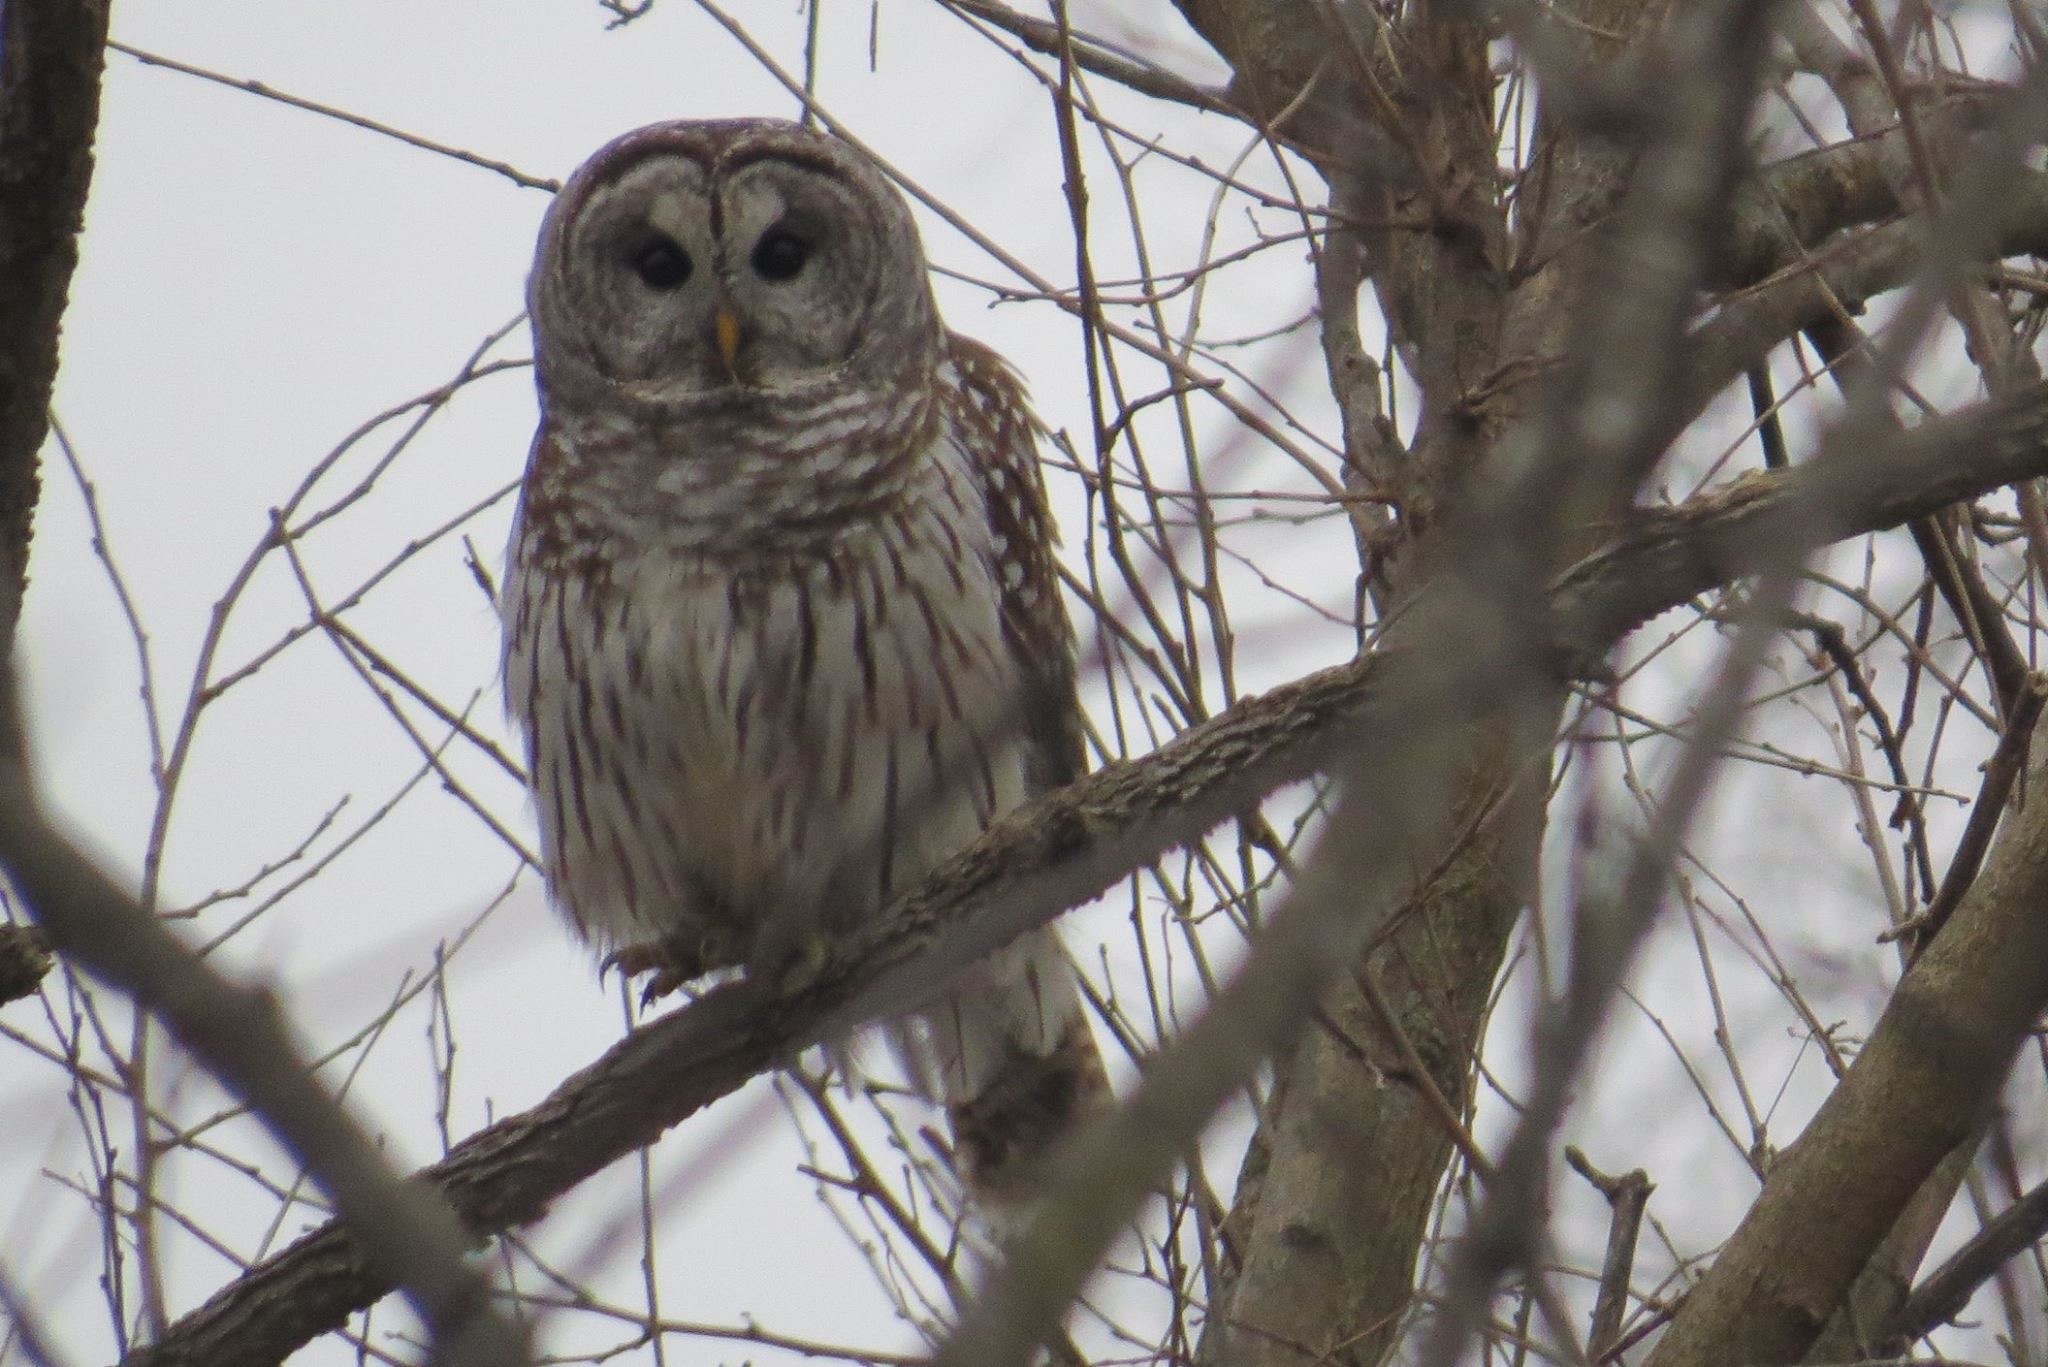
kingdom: Animalia
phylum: Chordata
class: Aves
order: Strigiformes
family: Strigidae
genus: Strix
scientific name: Strix varia
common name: Barred owl
